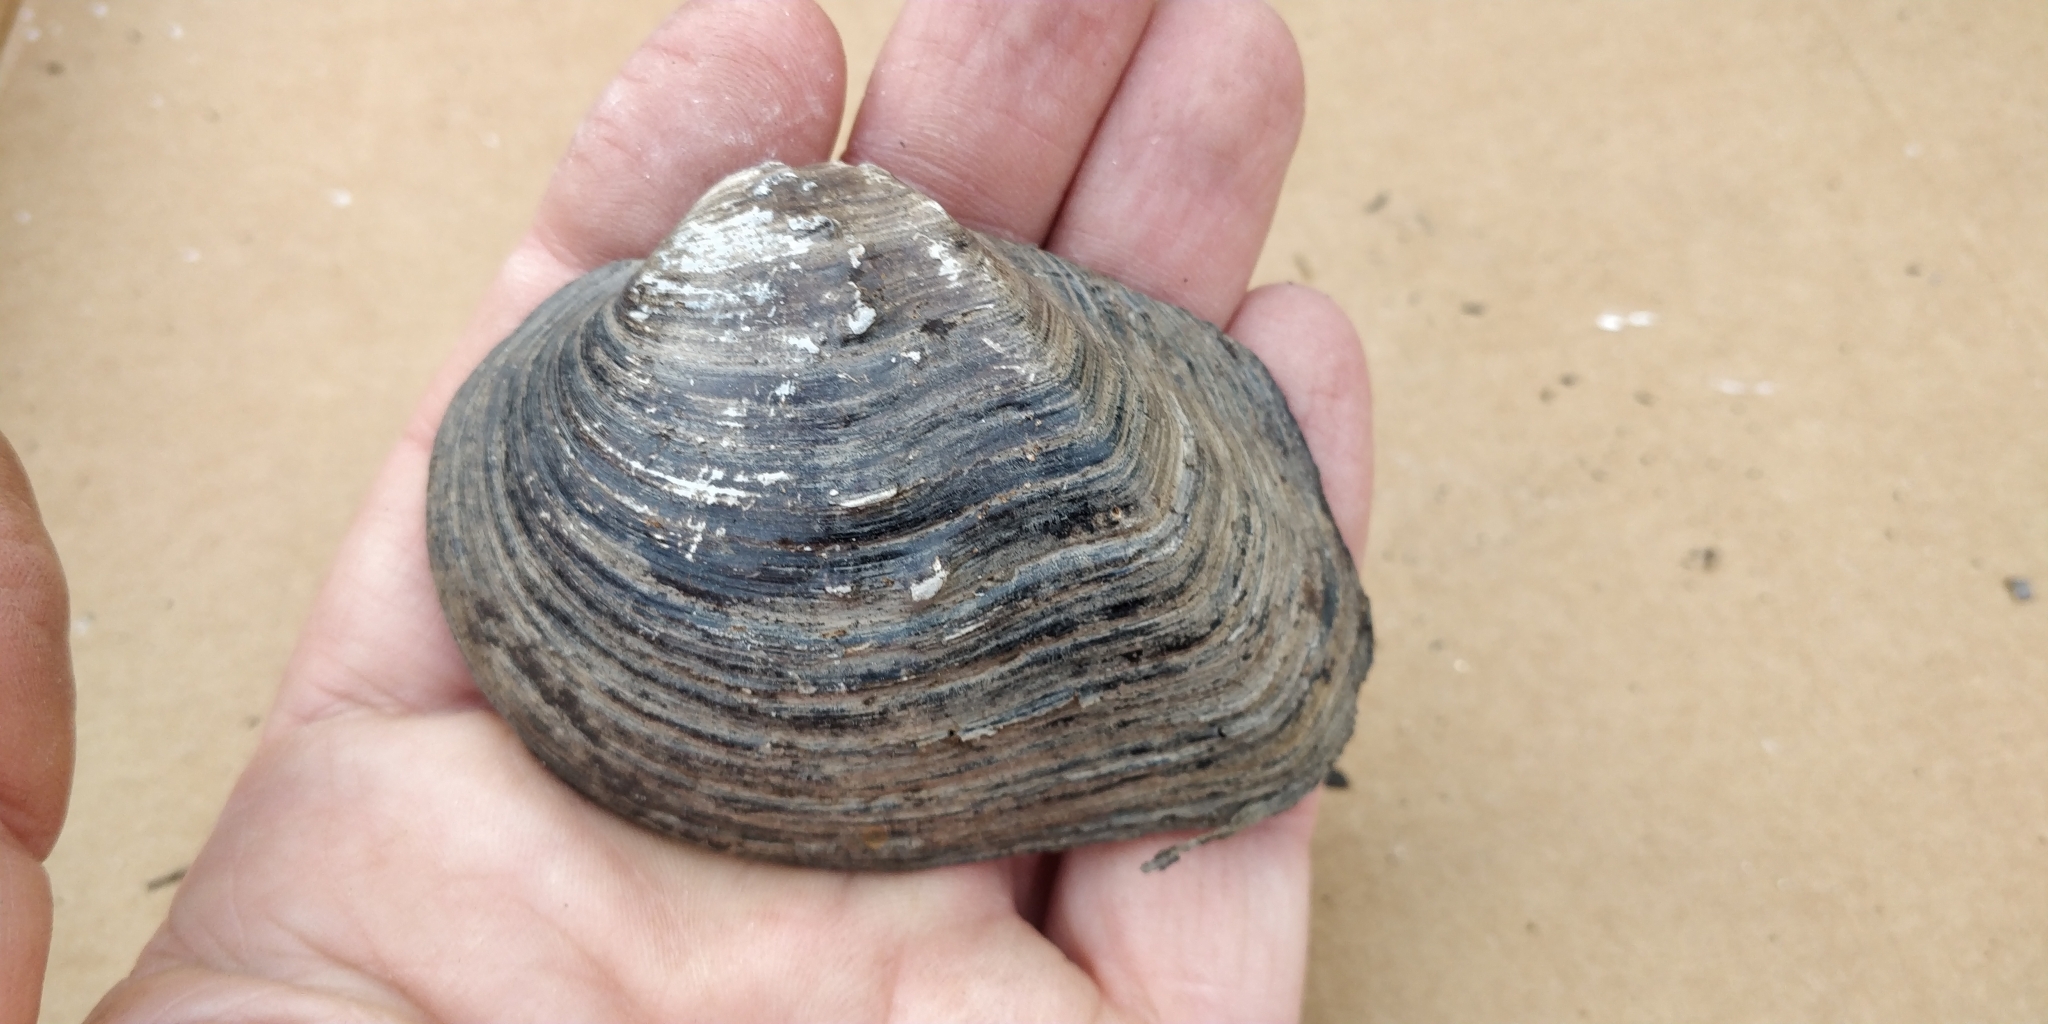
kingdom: Animalia
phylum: Mollusca
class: Bivalvia
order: Unionida
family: Unionidae
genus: Quadrula
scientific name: Quadrula quadrula
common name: Mapleleaf
